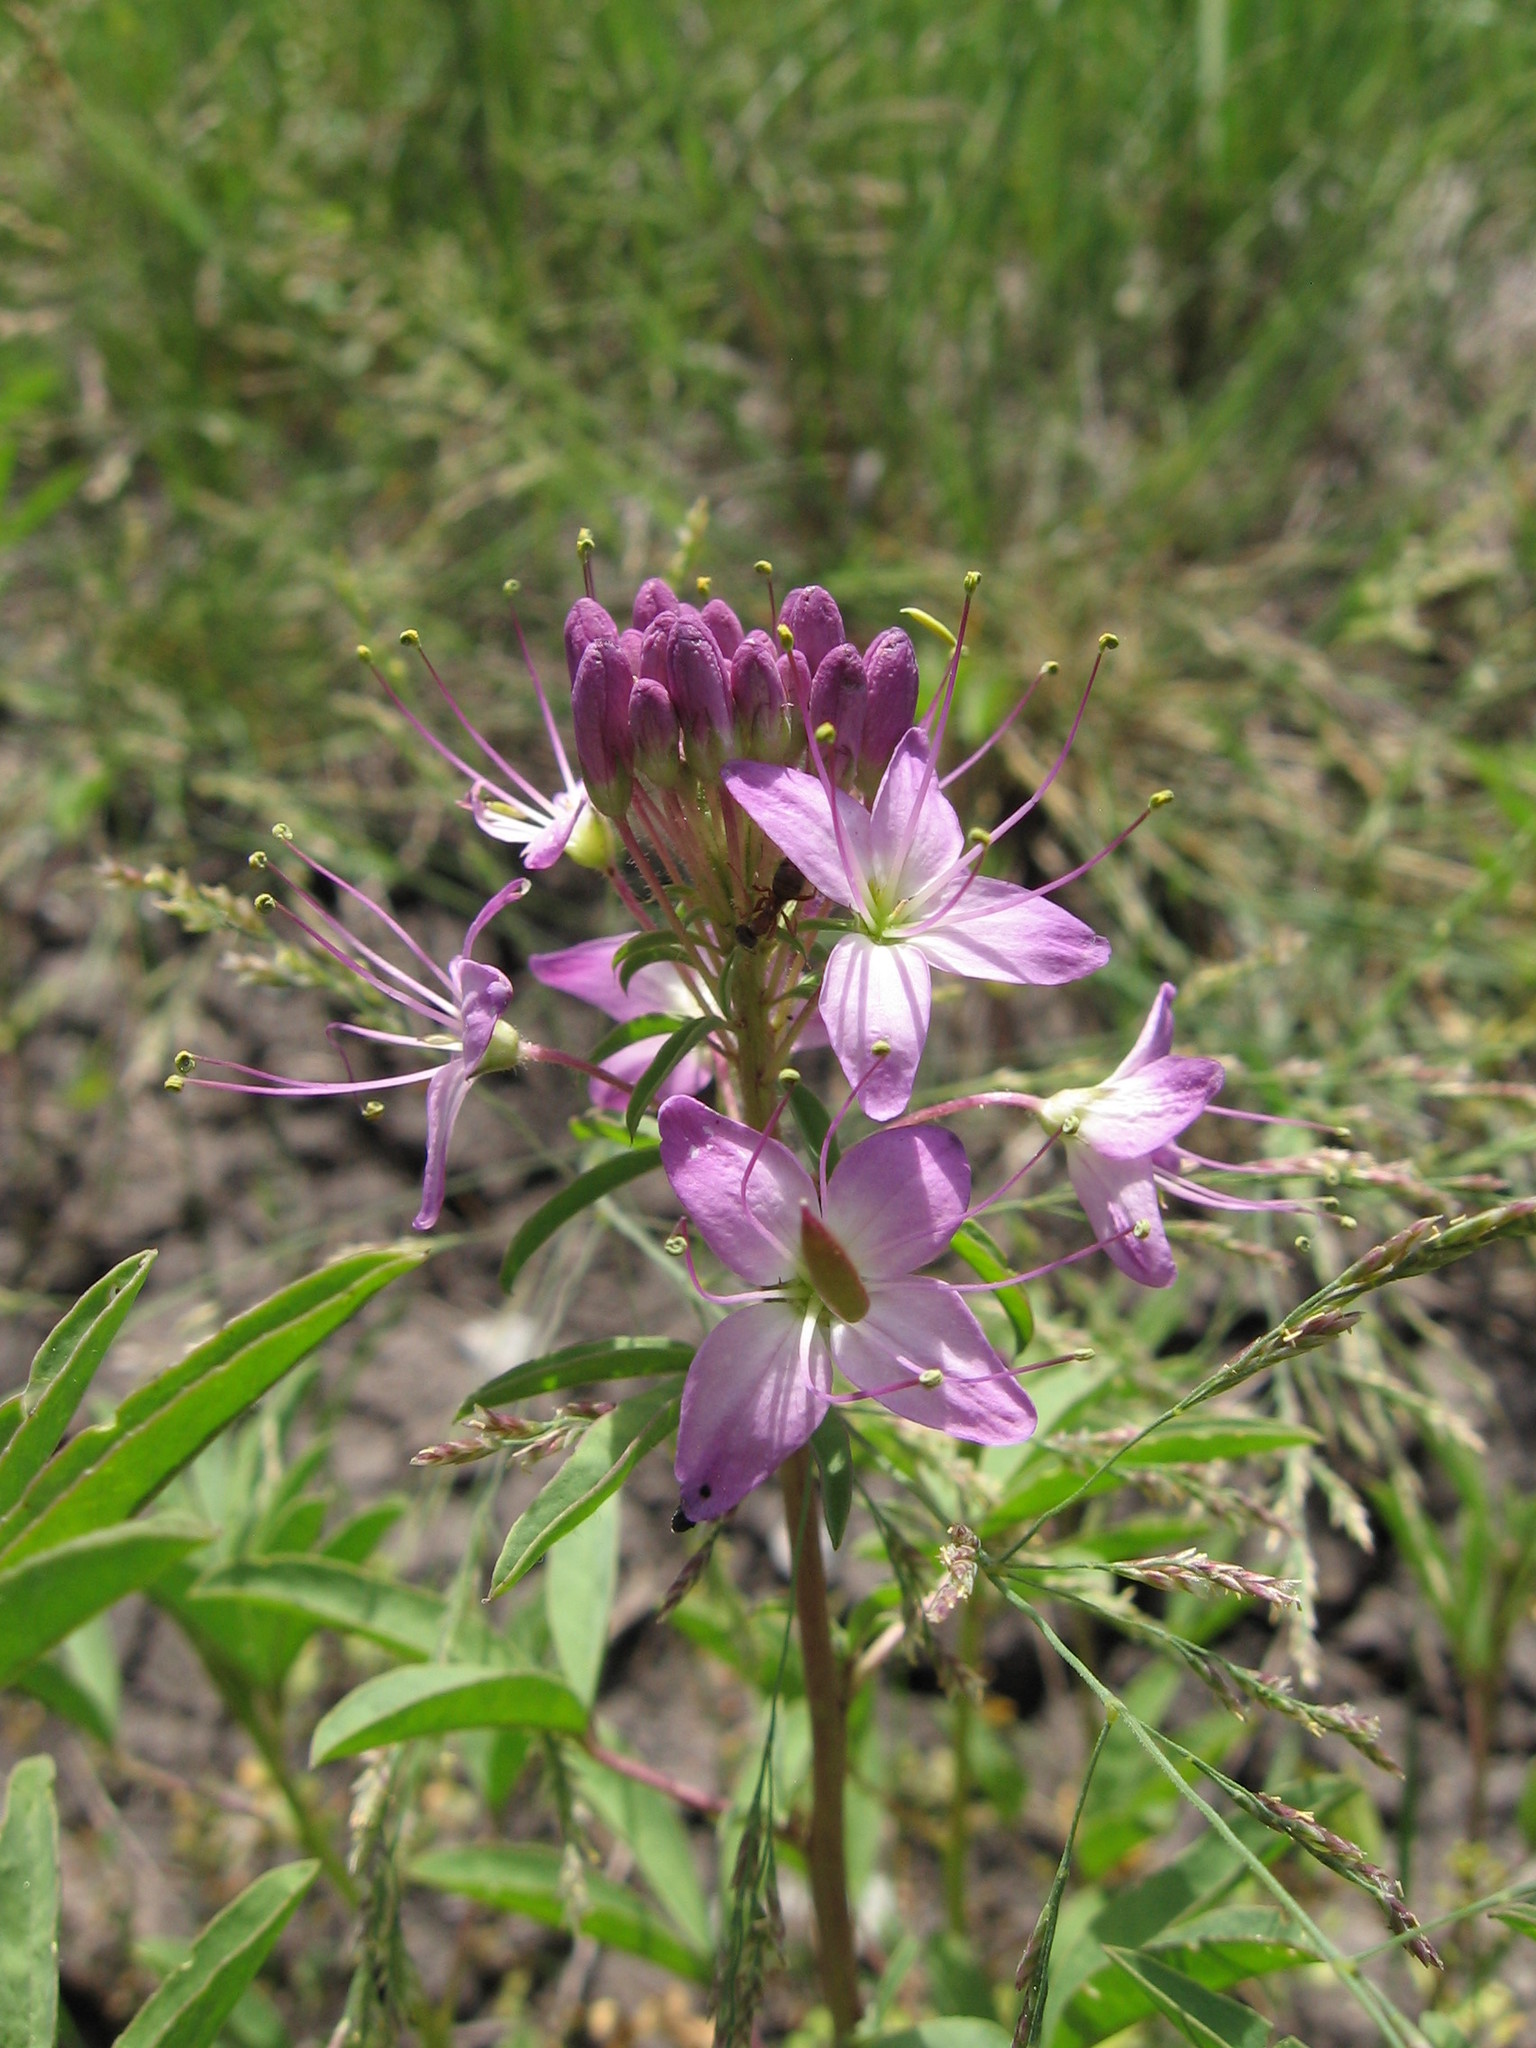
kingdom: Plantae
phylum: Tracheophyta
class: Magnoliopsida
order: Brassicales
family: Cleomaceae
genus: Cleomella
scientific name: Cleomella serrulata
